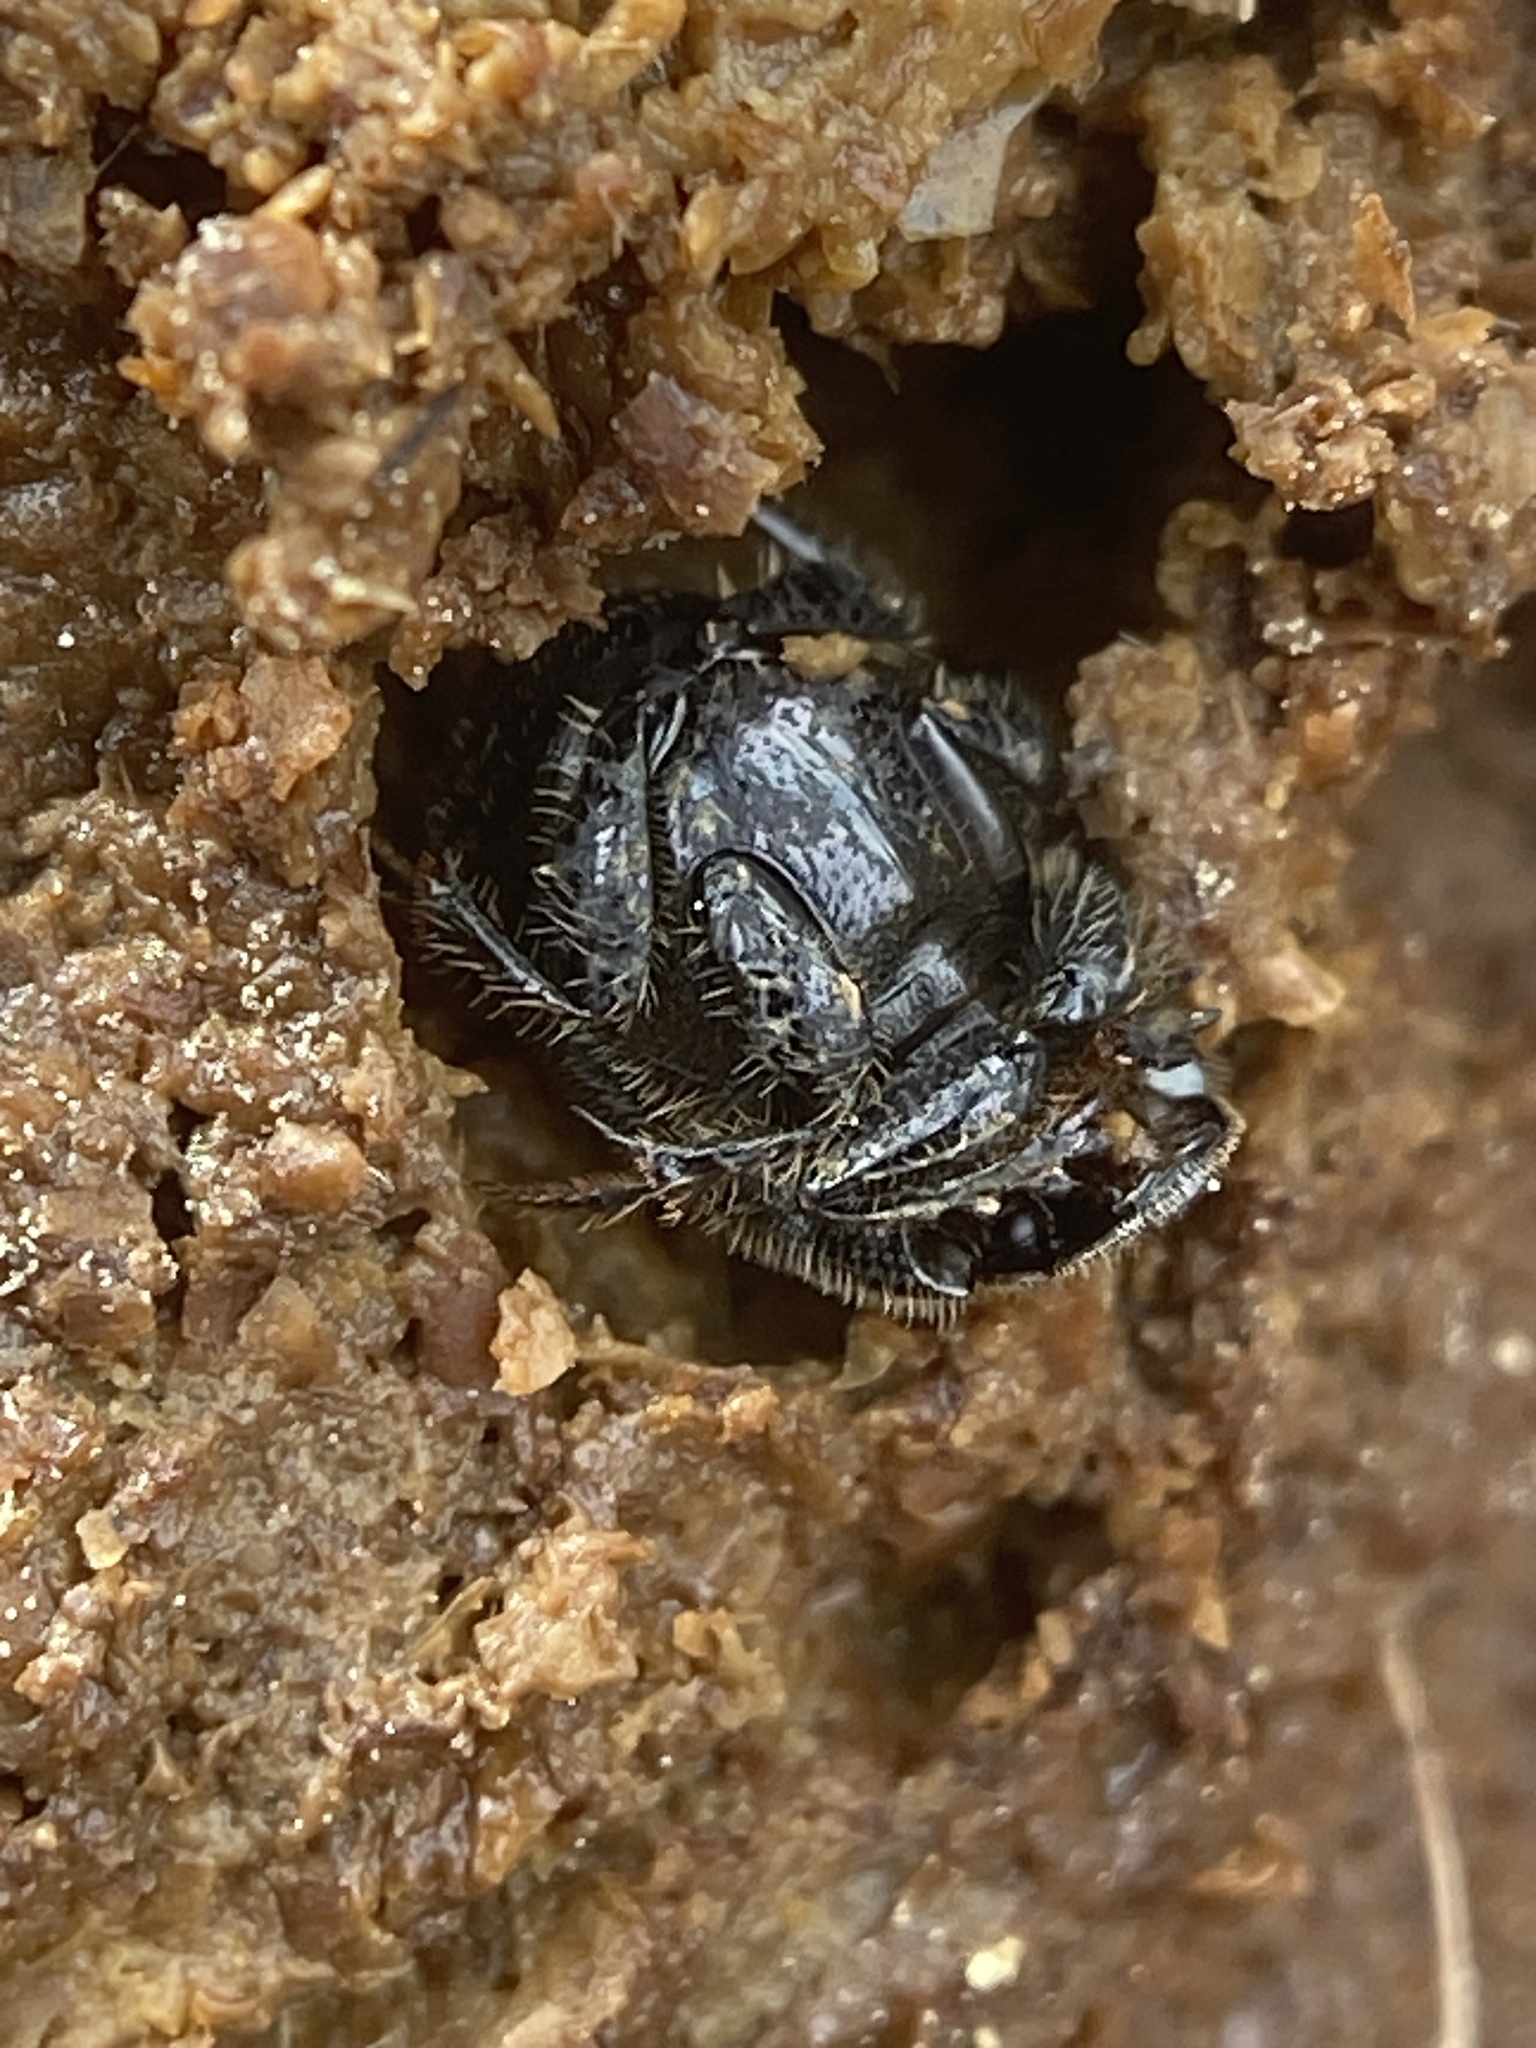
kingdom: Animalia
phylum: Arthropoda
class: Insecta
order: Coleoptera
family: Scarabaeidae
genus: Onthophagus
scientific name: Onthophagus hecate
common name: Scooped scarab
